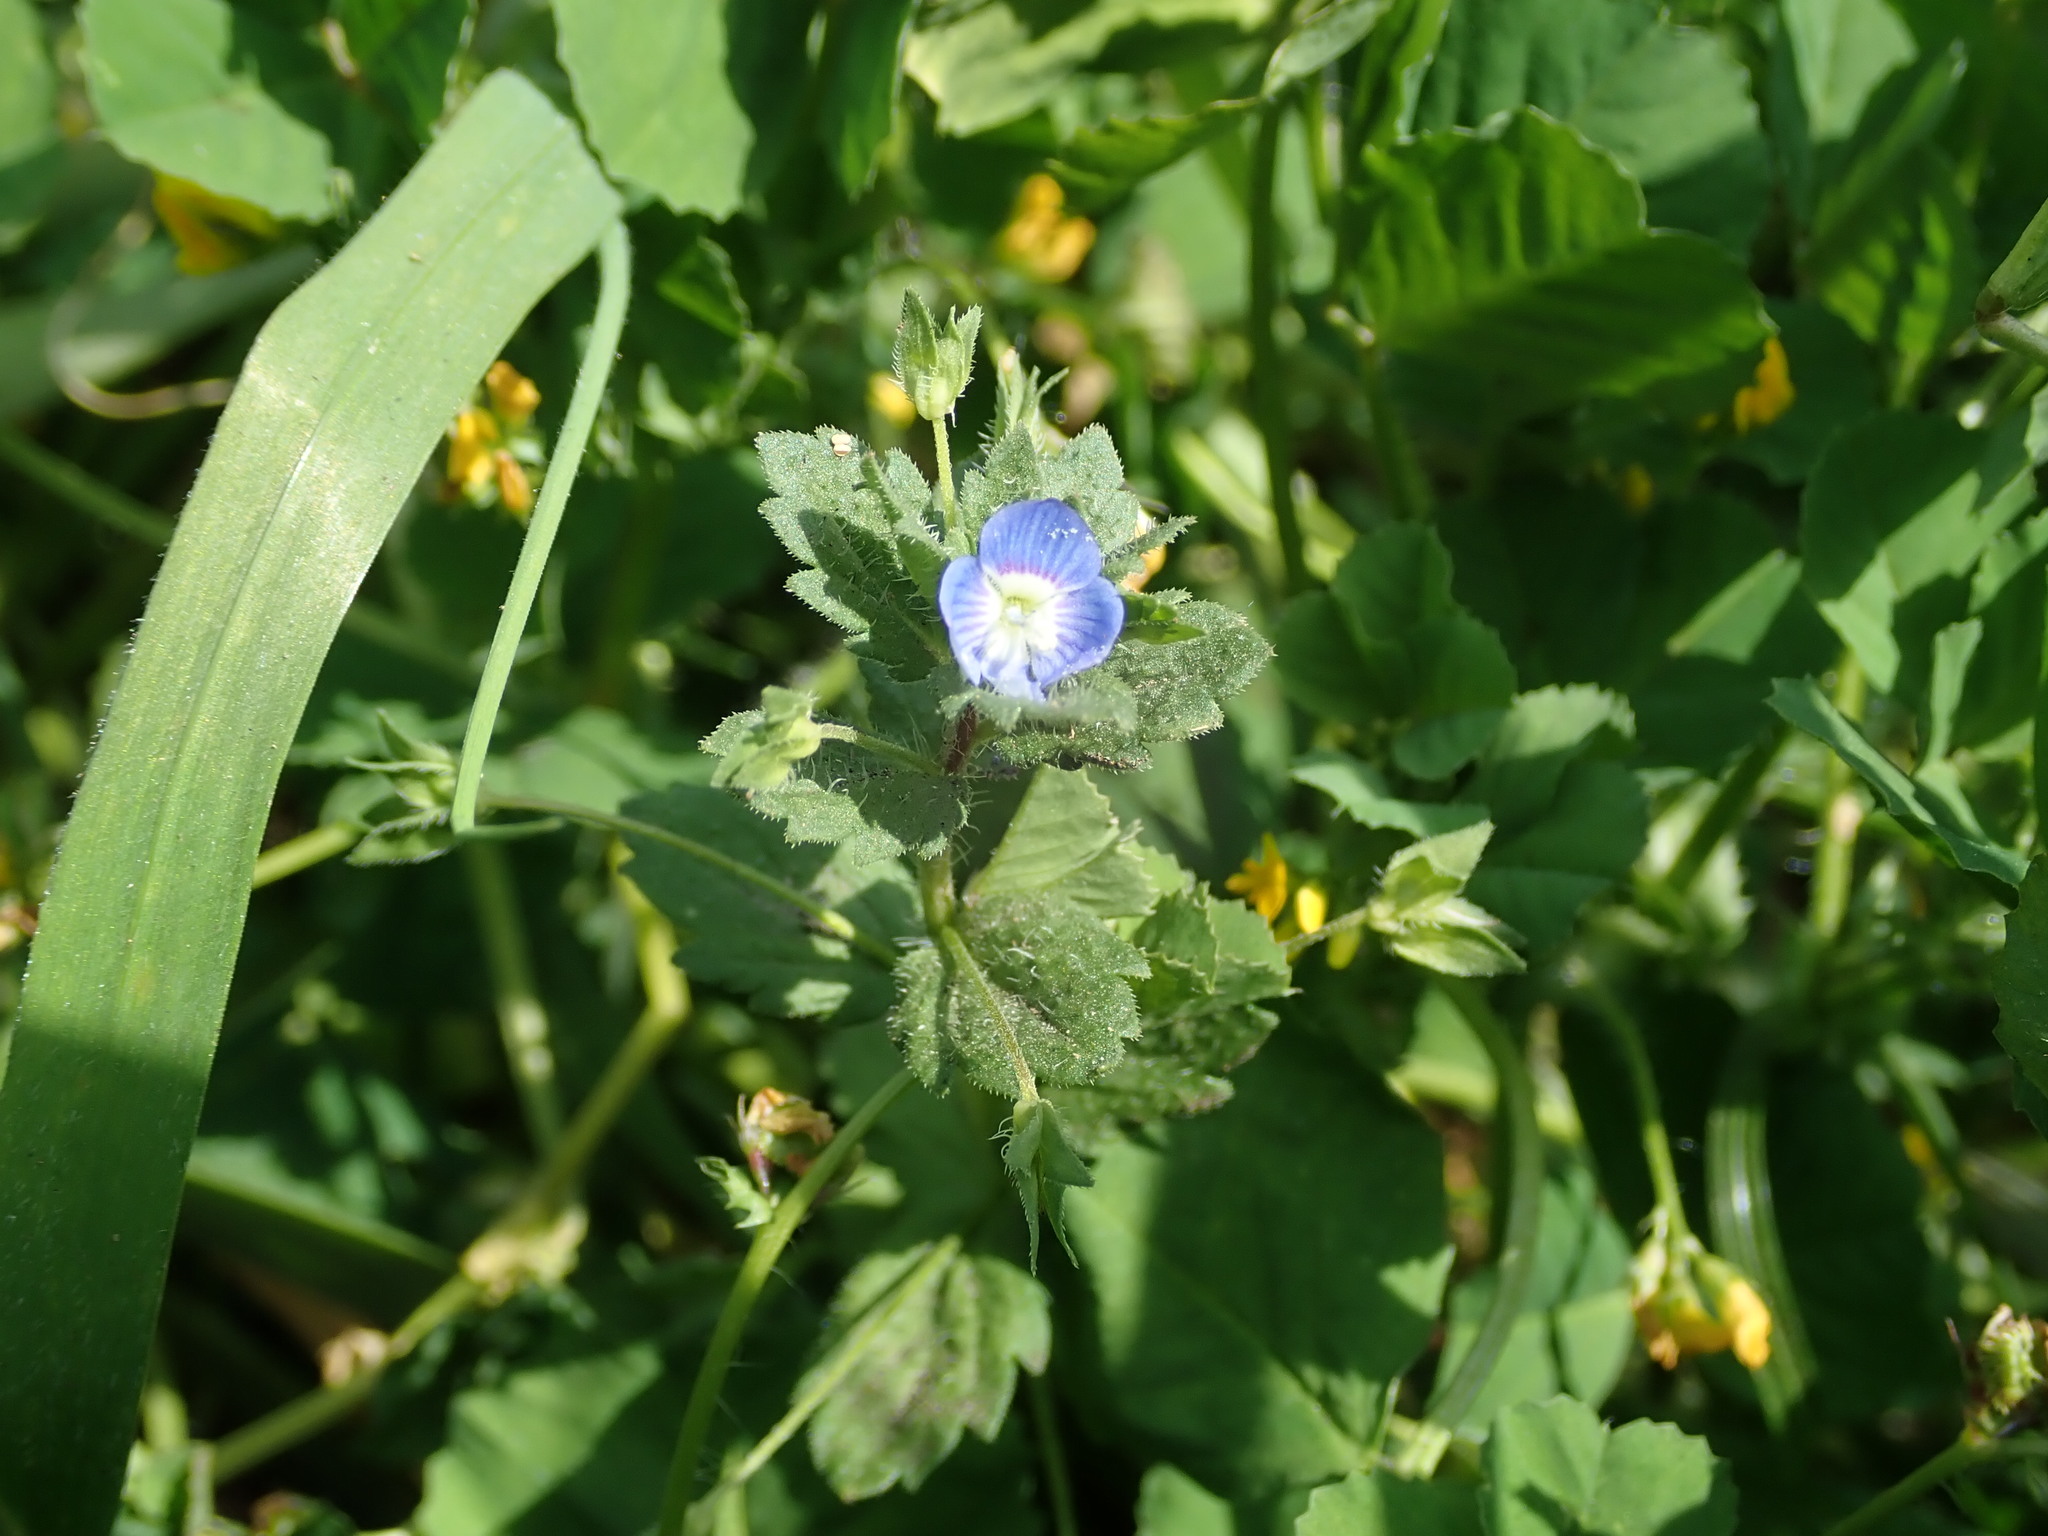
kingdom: Plantae
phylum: Tracheophyta
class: Magnoliopsida
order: Lamiales
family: Plantaginaceae
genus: Veronica
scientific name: Veronica persica
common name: Common field-speedwell
